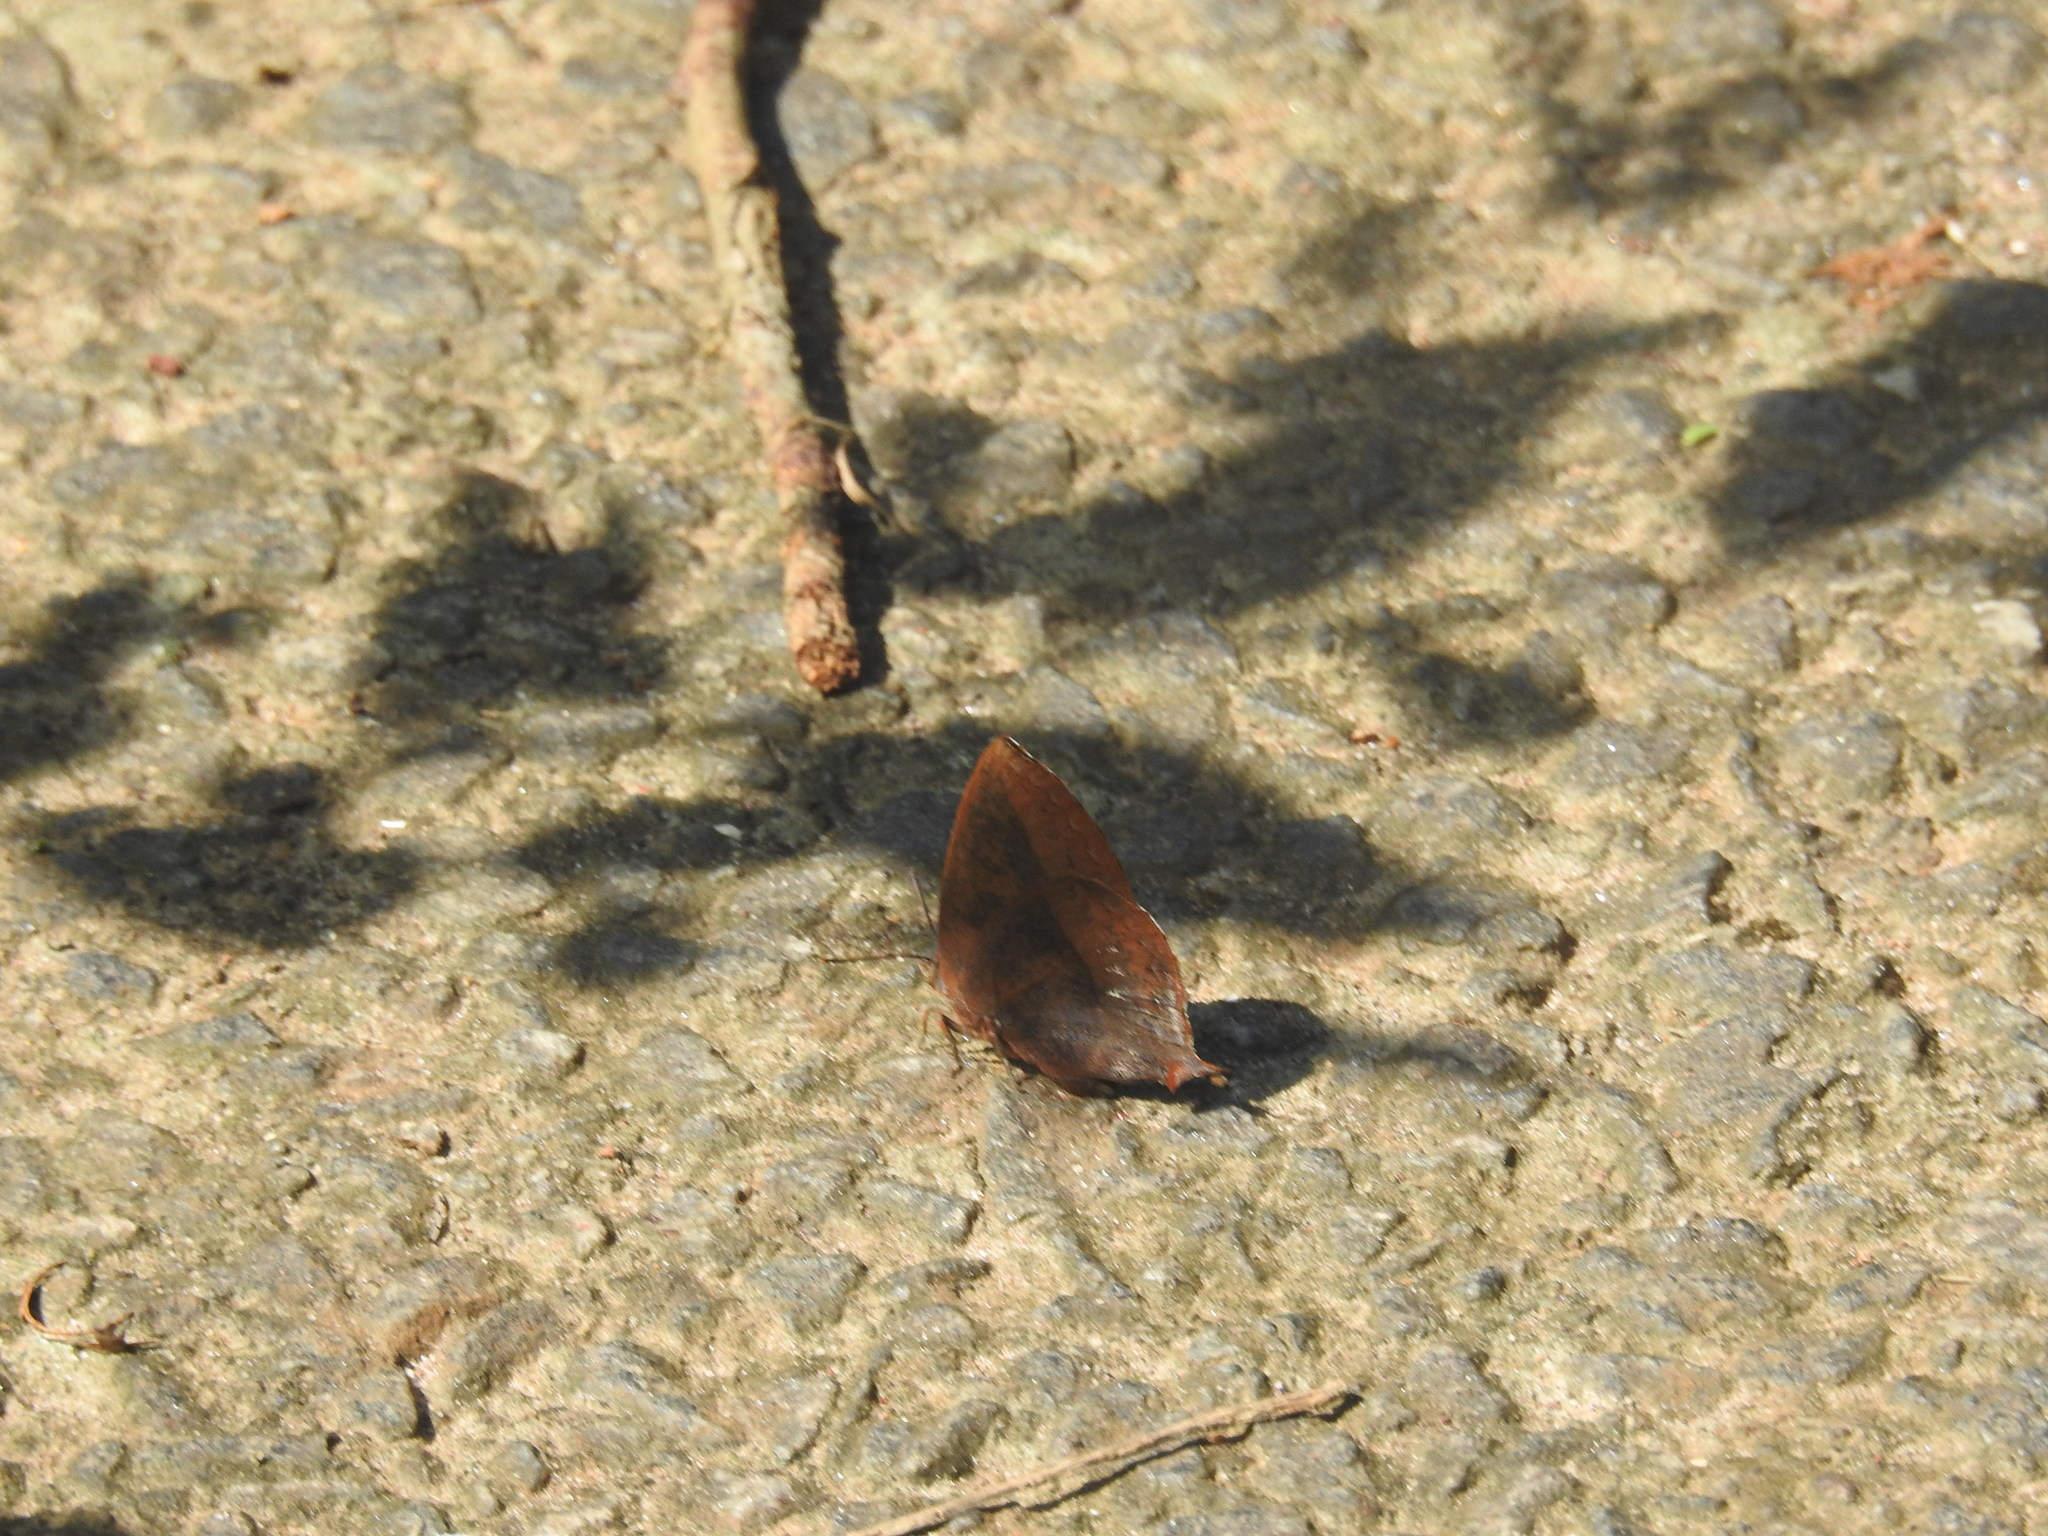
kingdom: Animalia
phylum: Arthropoda
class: Insecta
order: Lepidoptera
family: Lycaenidae
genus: Amblypodia
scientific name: Amblypodia anita
